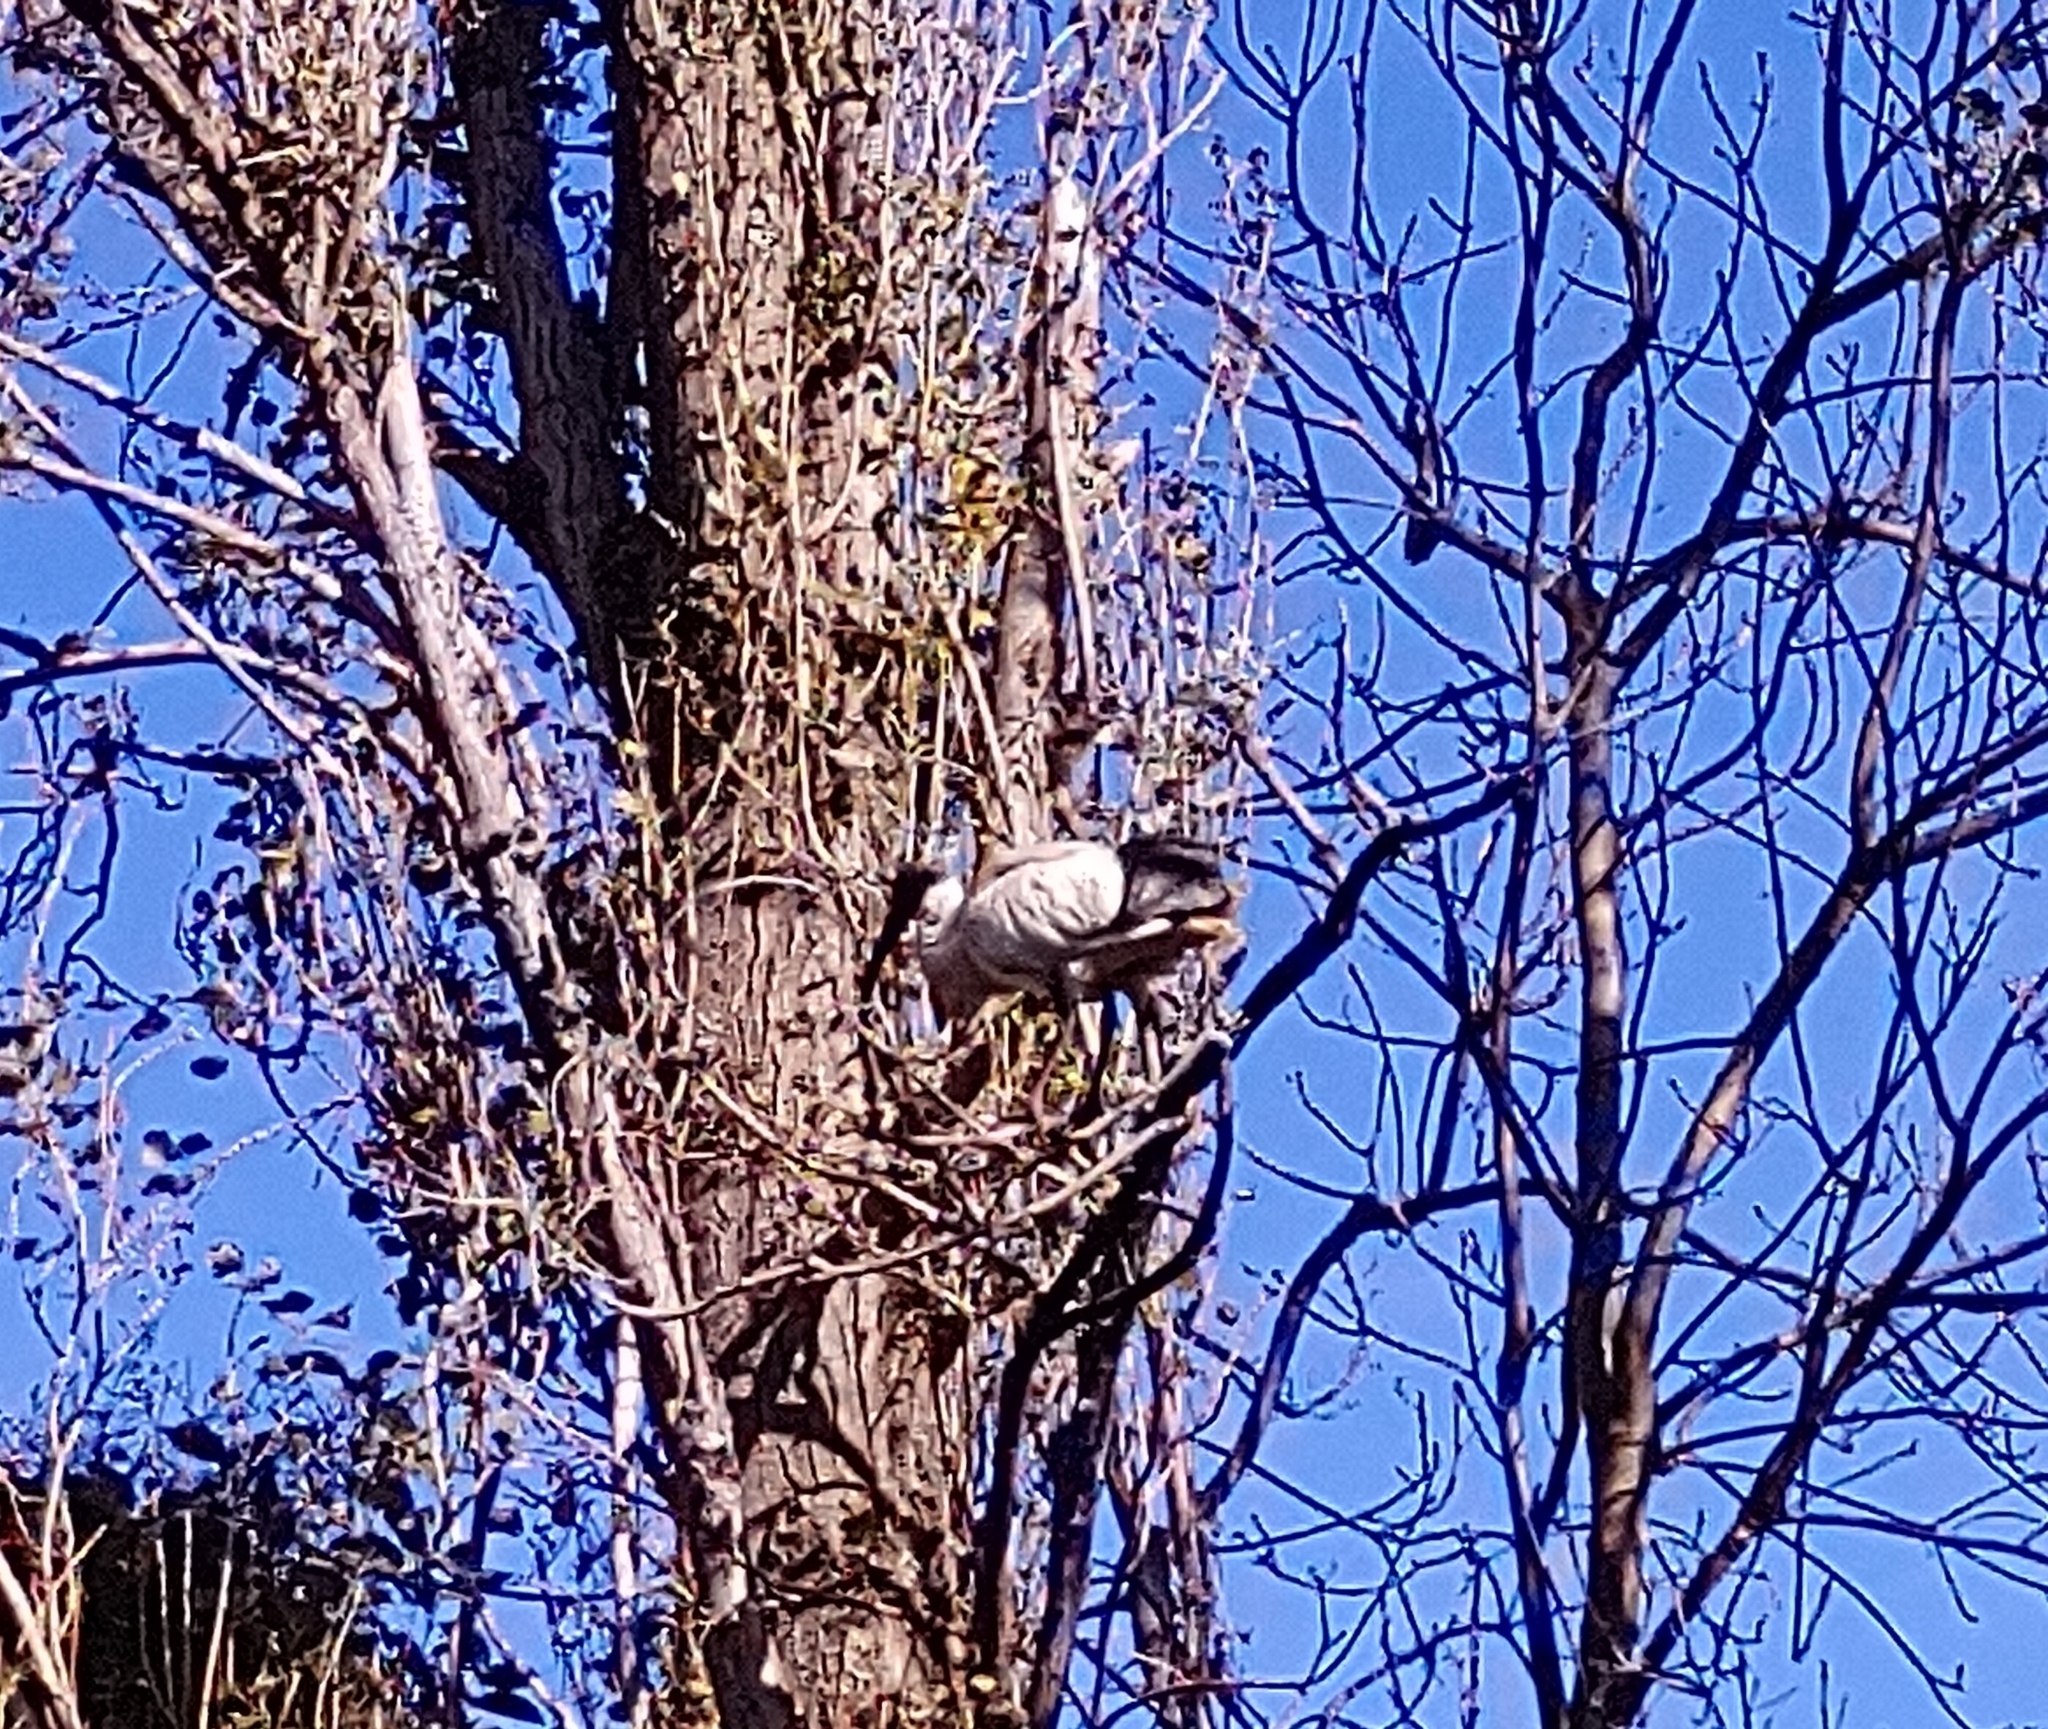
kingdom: Animalia
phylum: Chordata
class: Aves
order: Pelecaniformes
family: Threskiornithidae
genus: Threskiornis
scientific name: Threskiornis molucca
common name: Australian white ibis
